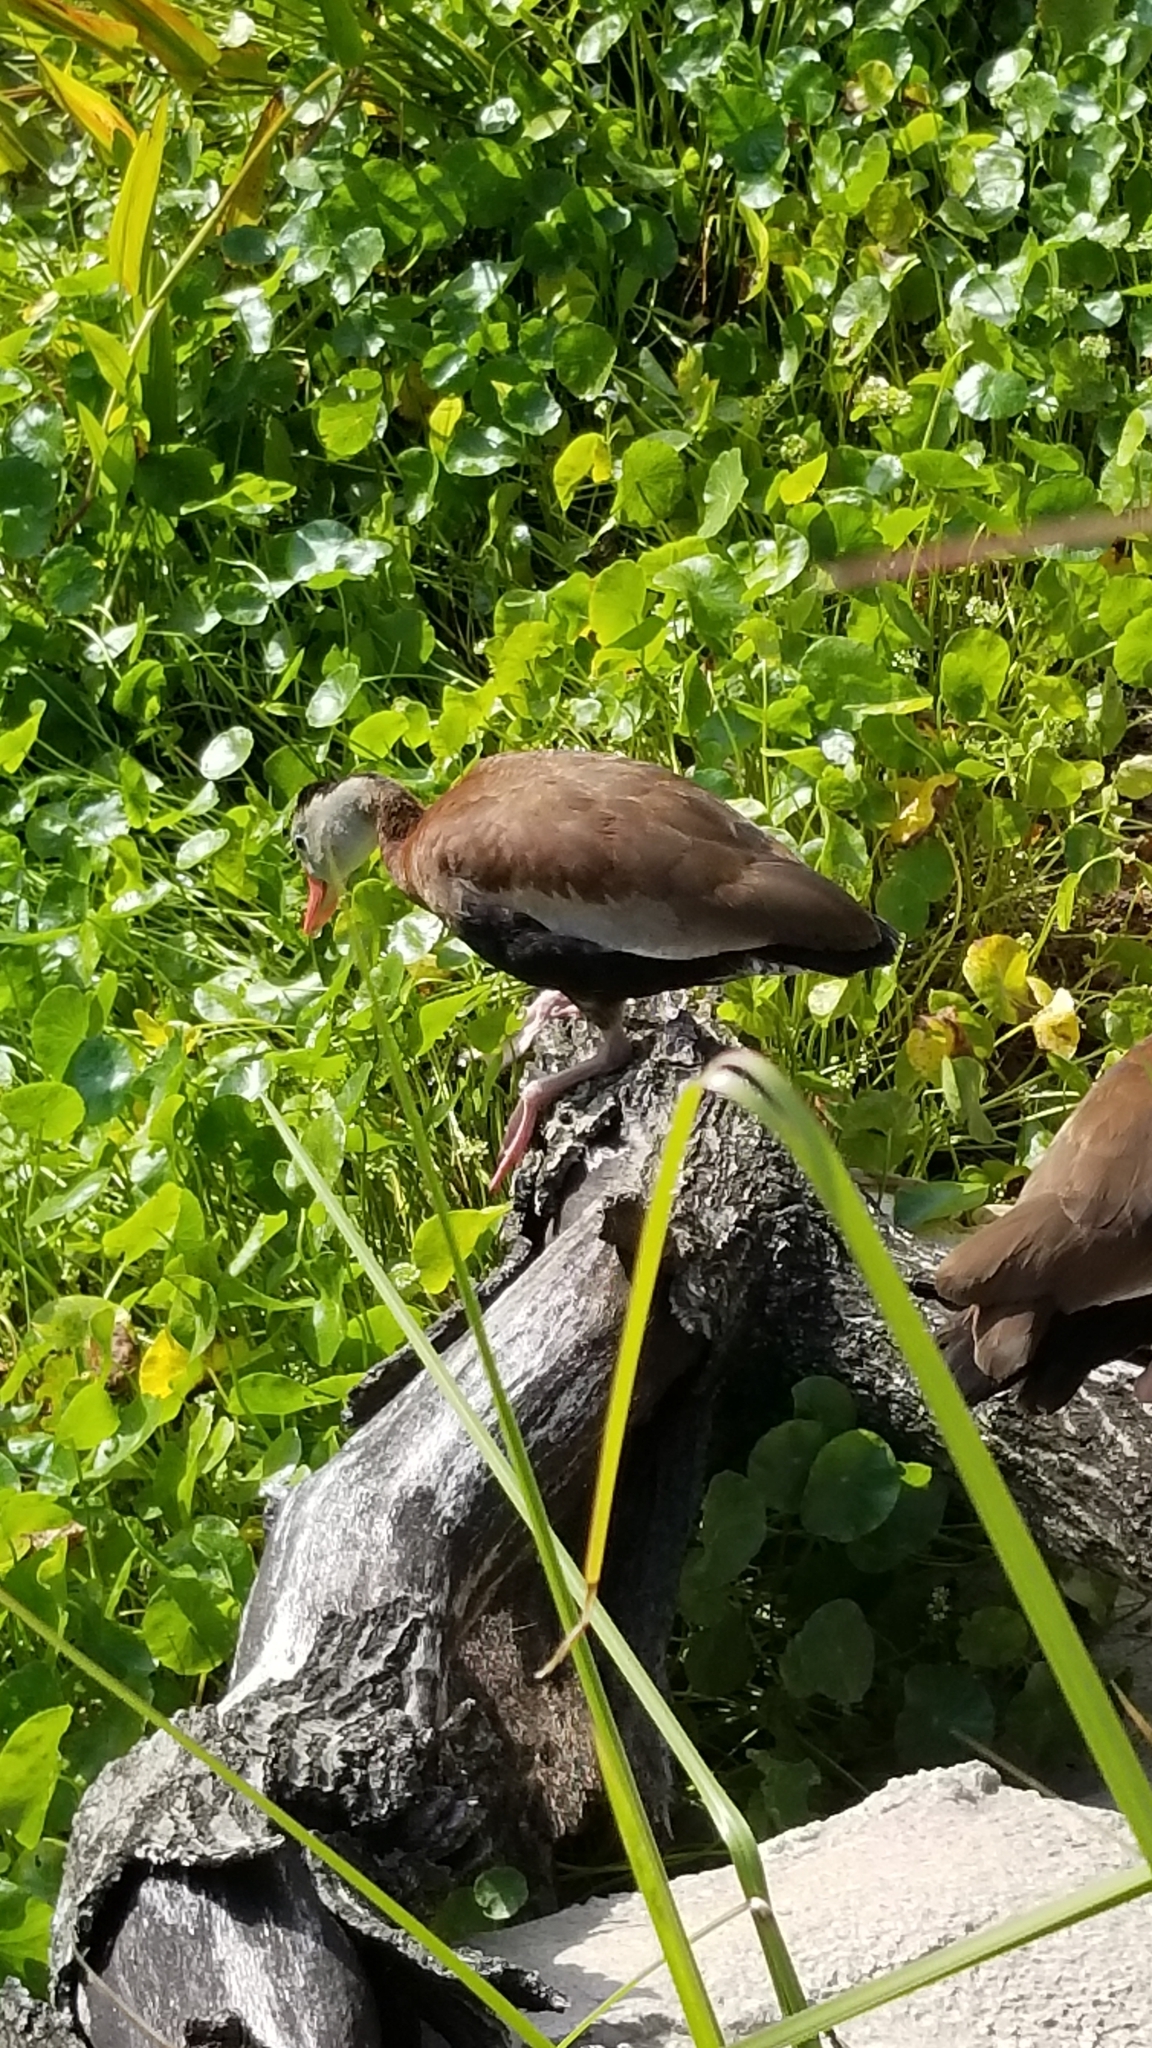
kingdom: Animalia
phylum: Chordata
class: Aves
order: Anseriformes
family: Anatidae
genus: Dendrocygna
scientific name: Dendrocygna autumnalis
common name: Black-bellied whistling duck
